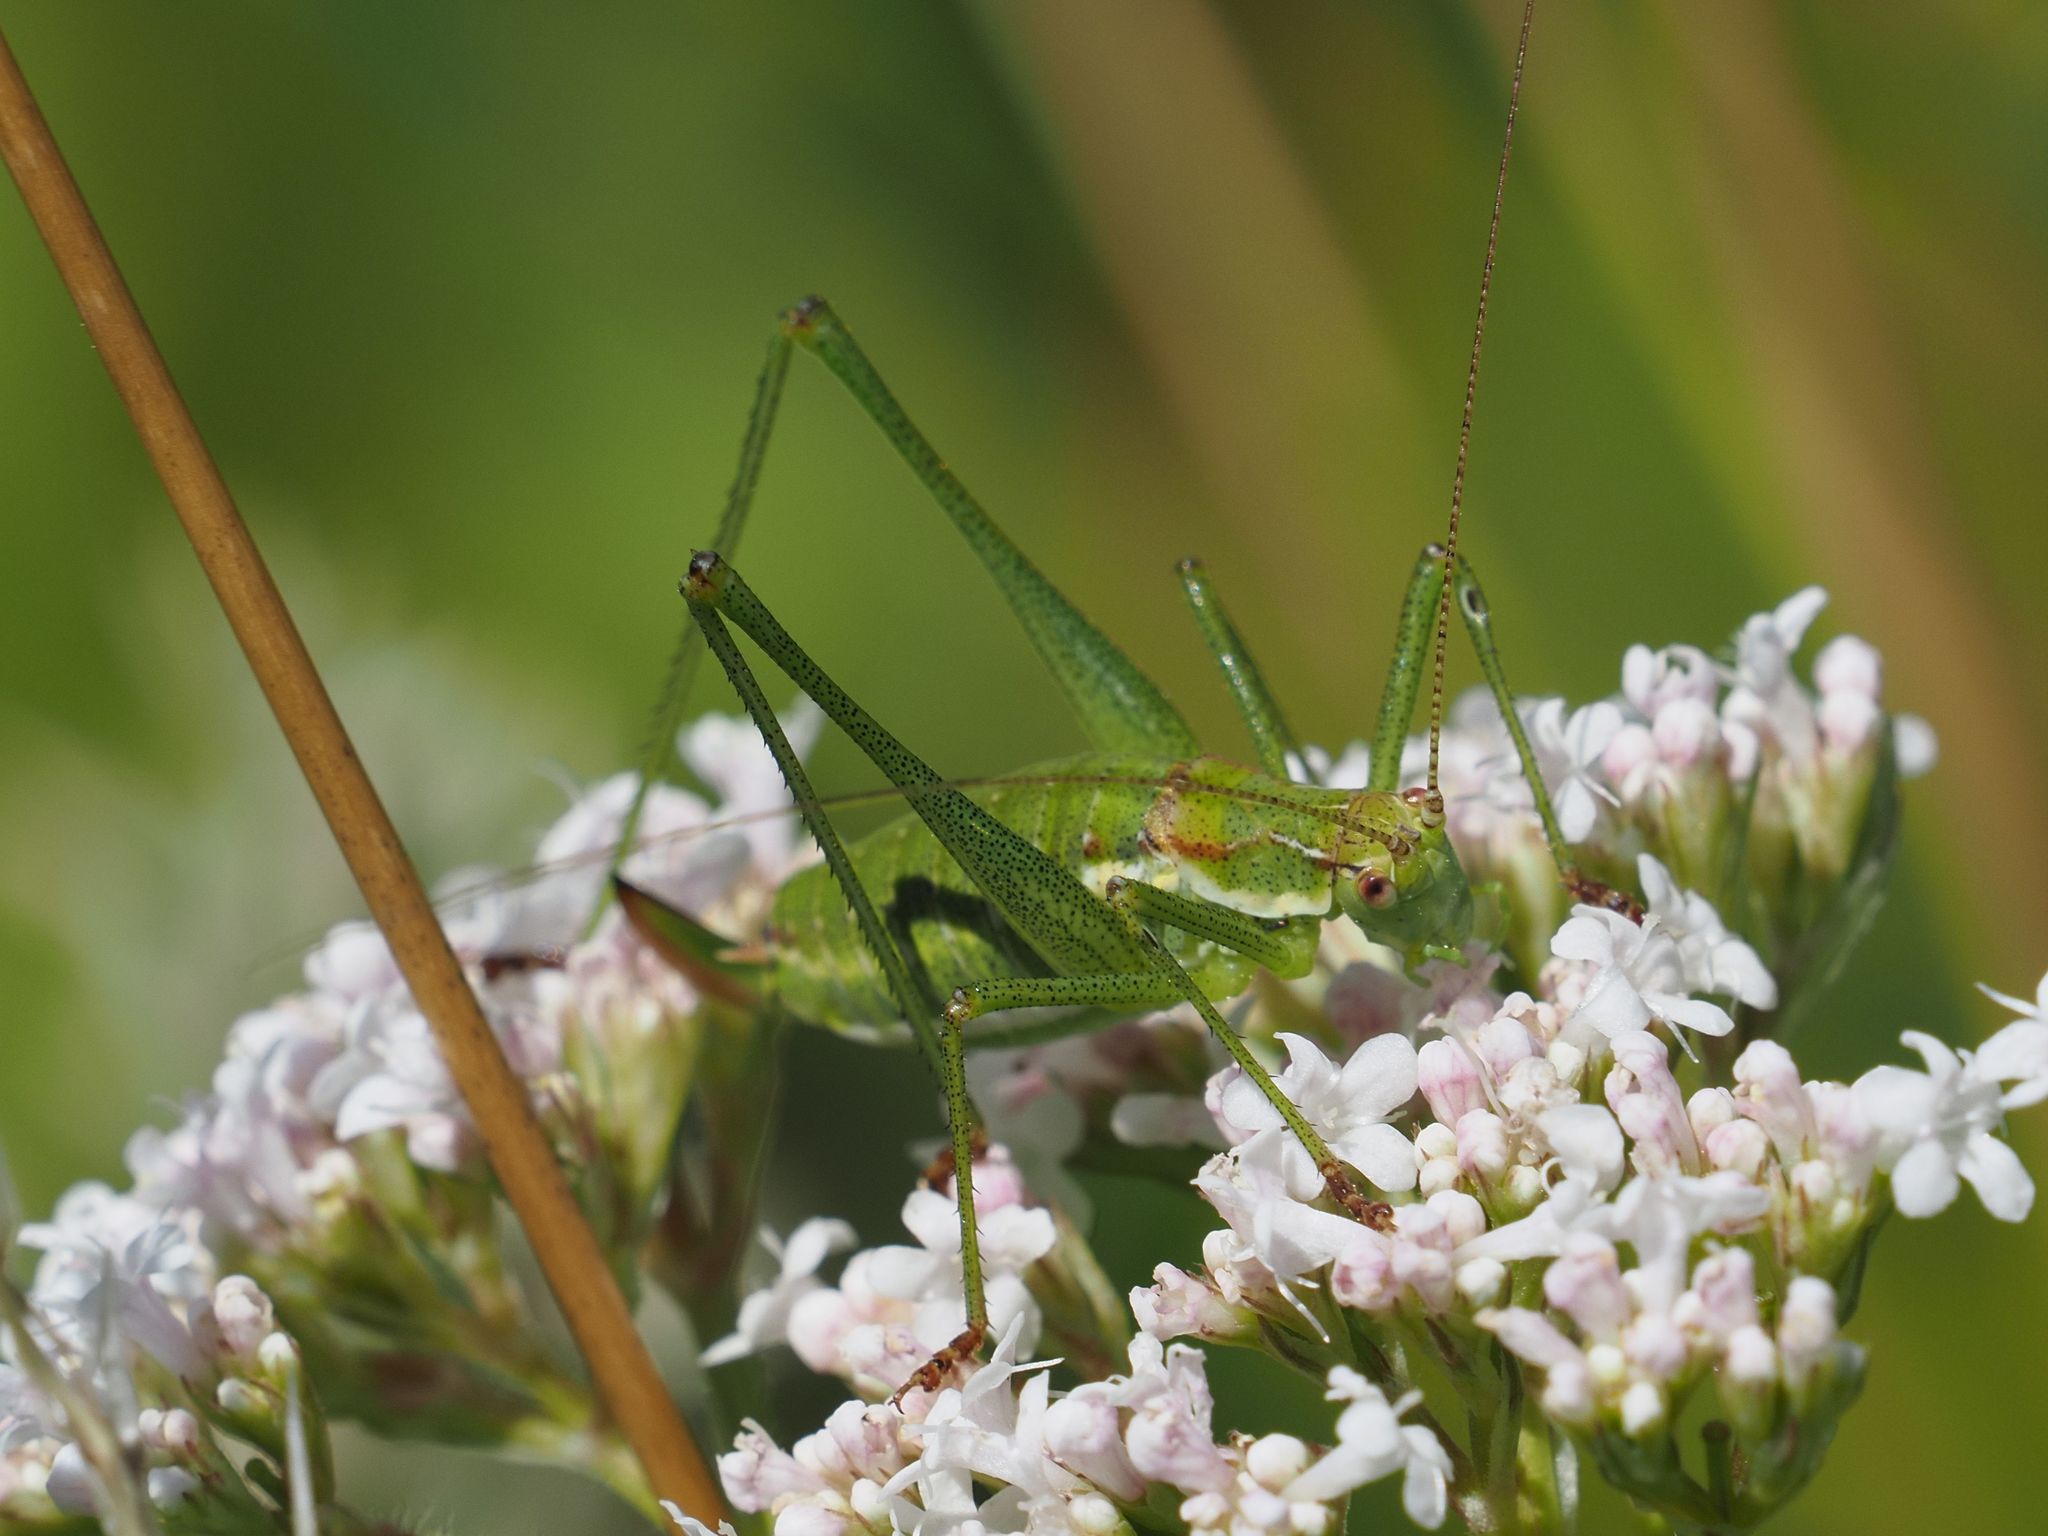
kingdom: Animalia
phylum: Arthropoda
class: Insecta
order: Orthoptera
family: Tettigoniidae
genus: Leptophyes
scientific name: Leptophyes albovittata
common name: Striped bush-cricket
